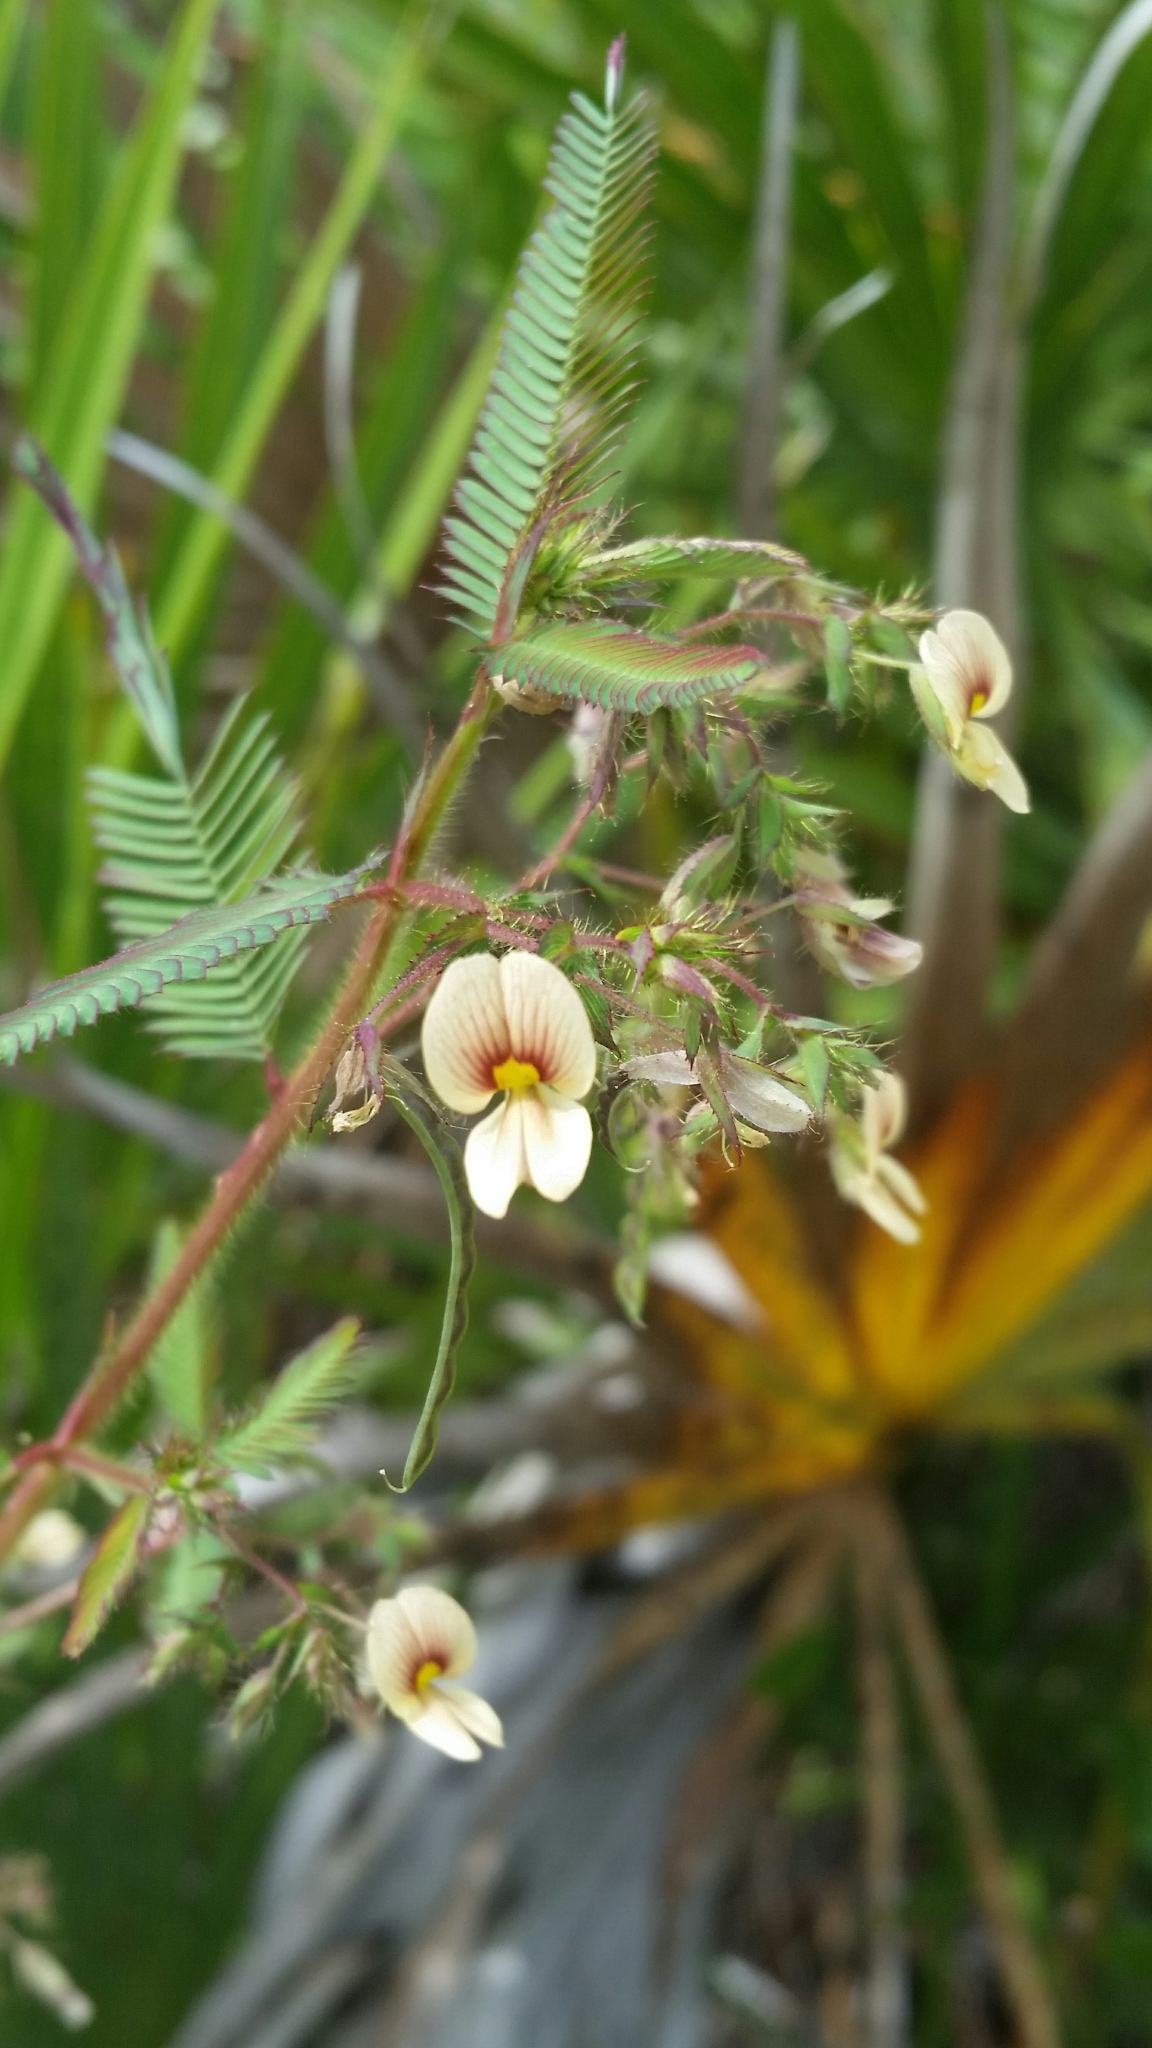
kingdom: Plantae
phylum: Tracheophyta
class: Magnoliopsida
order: Fabales
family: Fabaceae
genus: Aeschynomene
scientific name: Aeschynomene americana
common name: Joint-vetch
